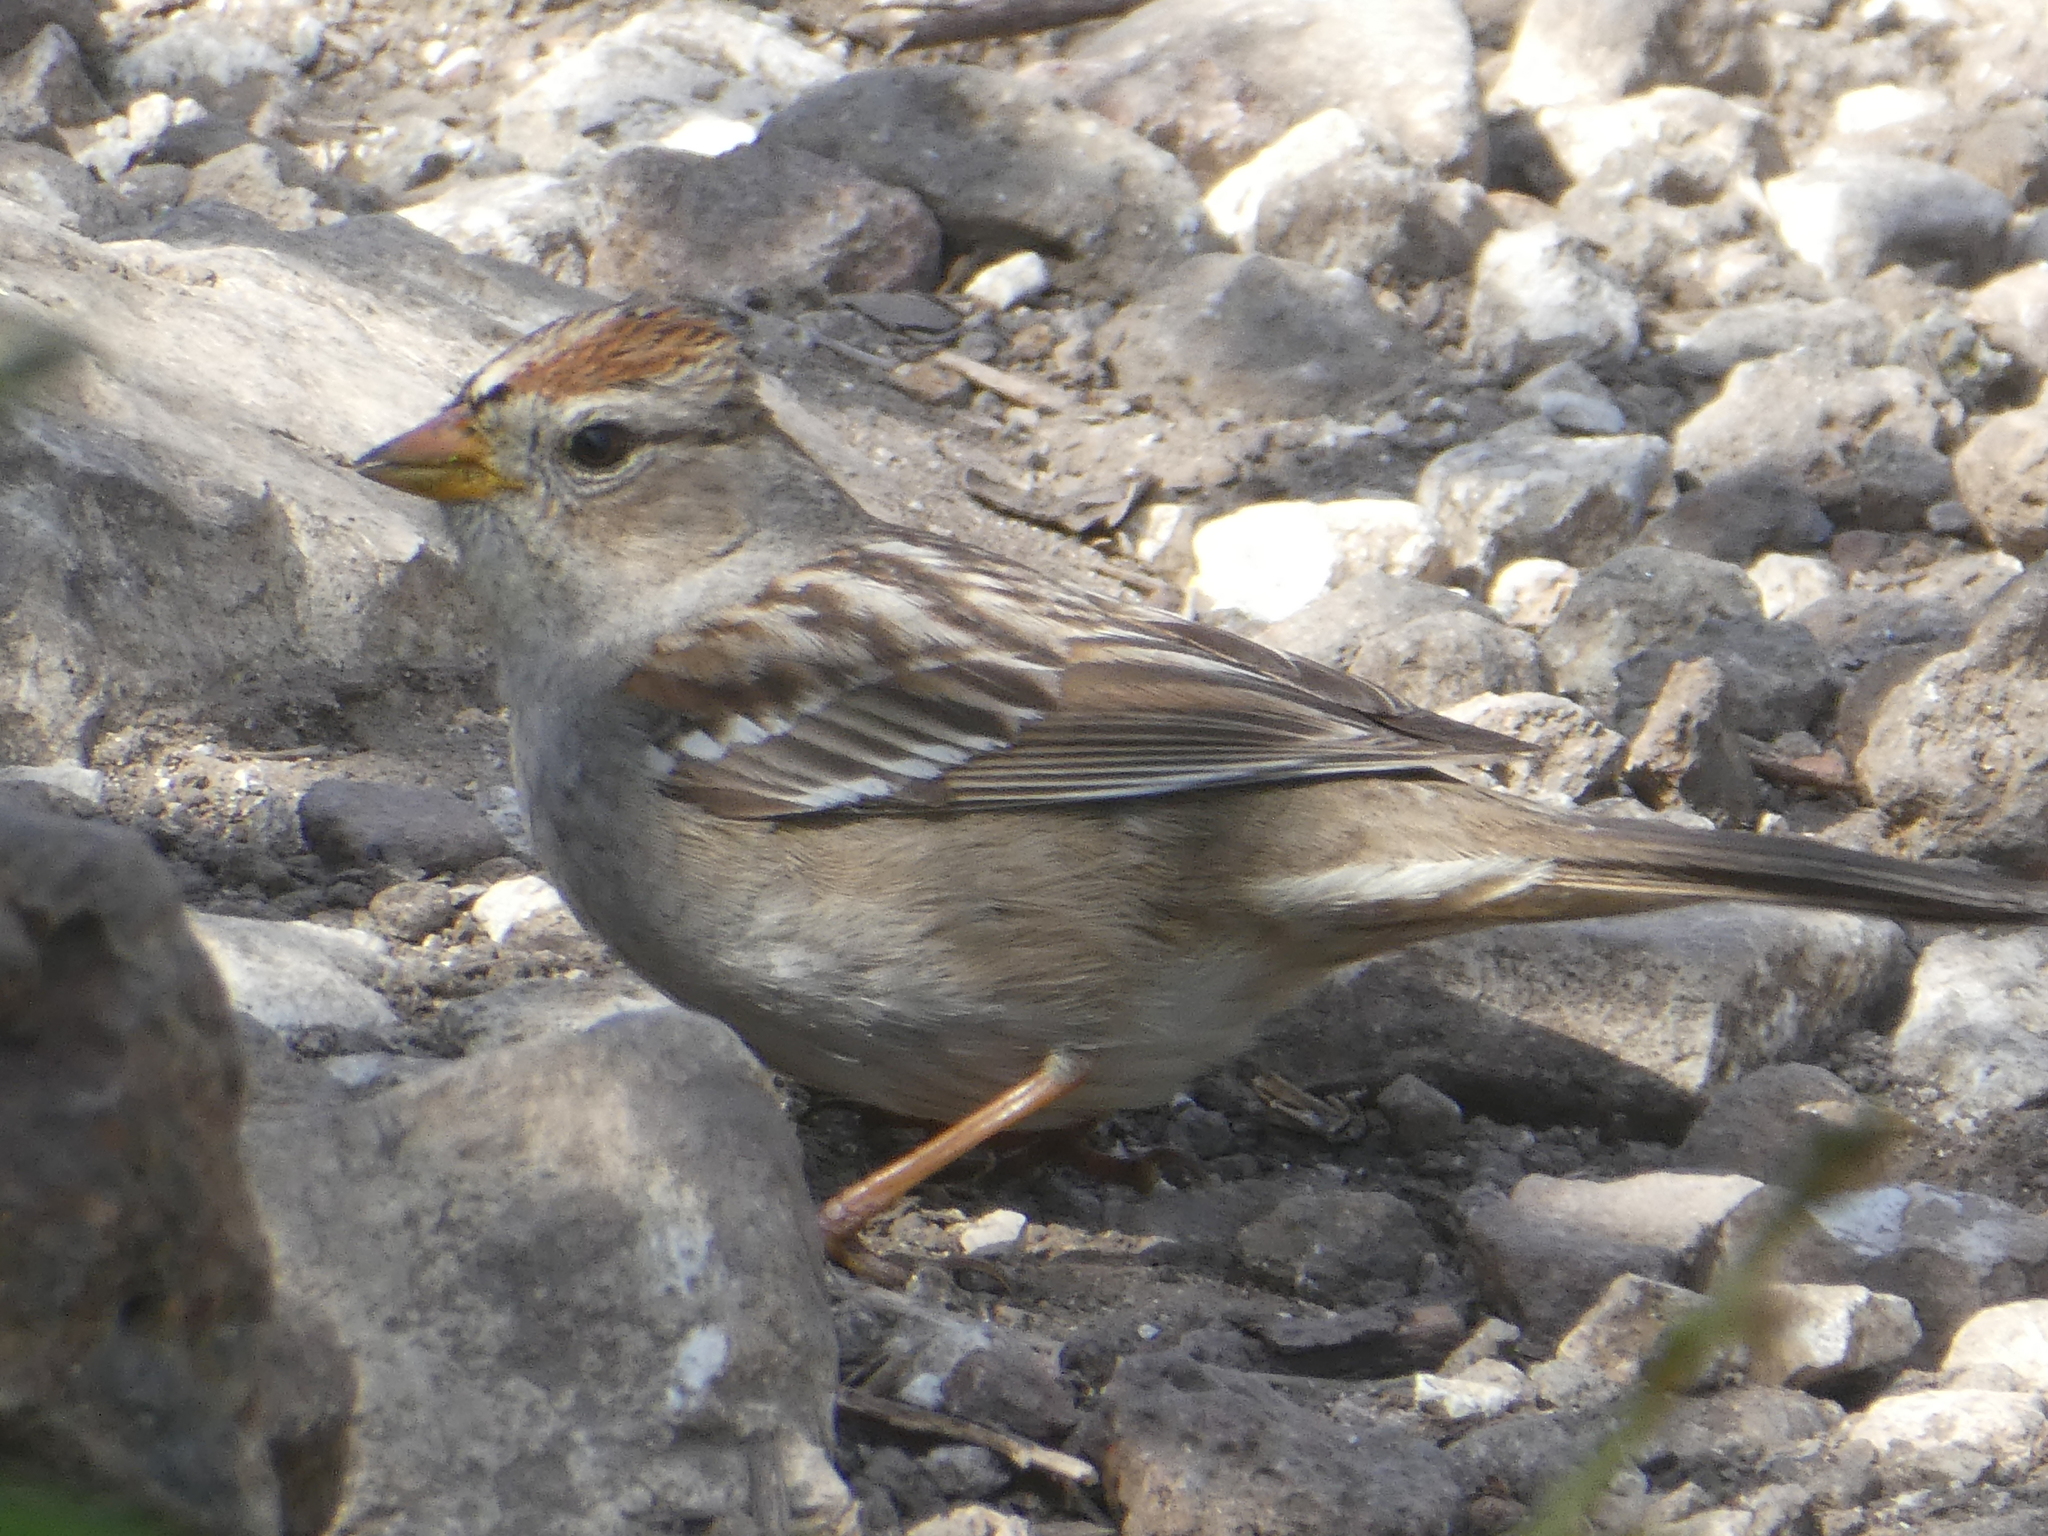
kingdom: Animalia
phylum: Chordata
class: Aves
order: Passeriformes
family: Passerellidae
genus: Zonotrichia
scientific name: Zonotrichia leucophrys
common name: White-crowned sparrow
